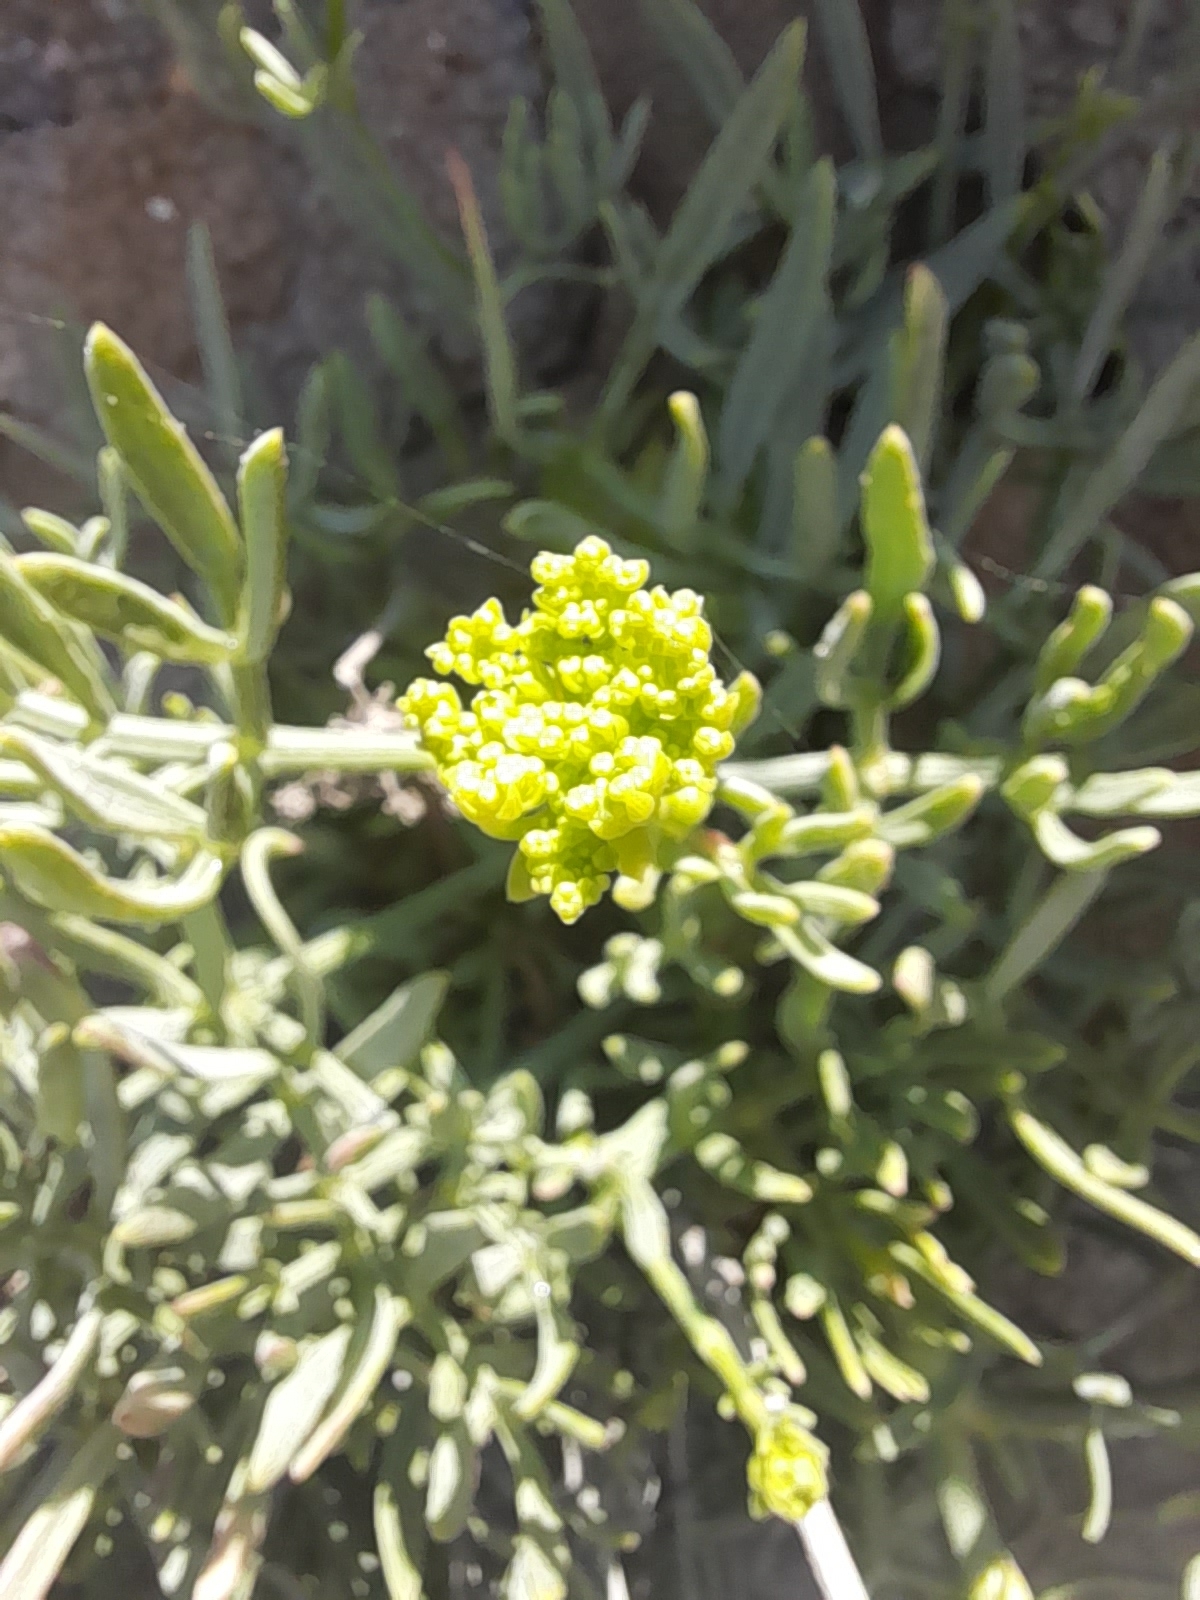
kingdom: Plantae
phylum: Tracheophyta
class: Magnoliopsida
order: Apiales
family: Apiaceae
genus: Crithmum
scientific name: Crithmum maritimum
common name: Rock samphire
